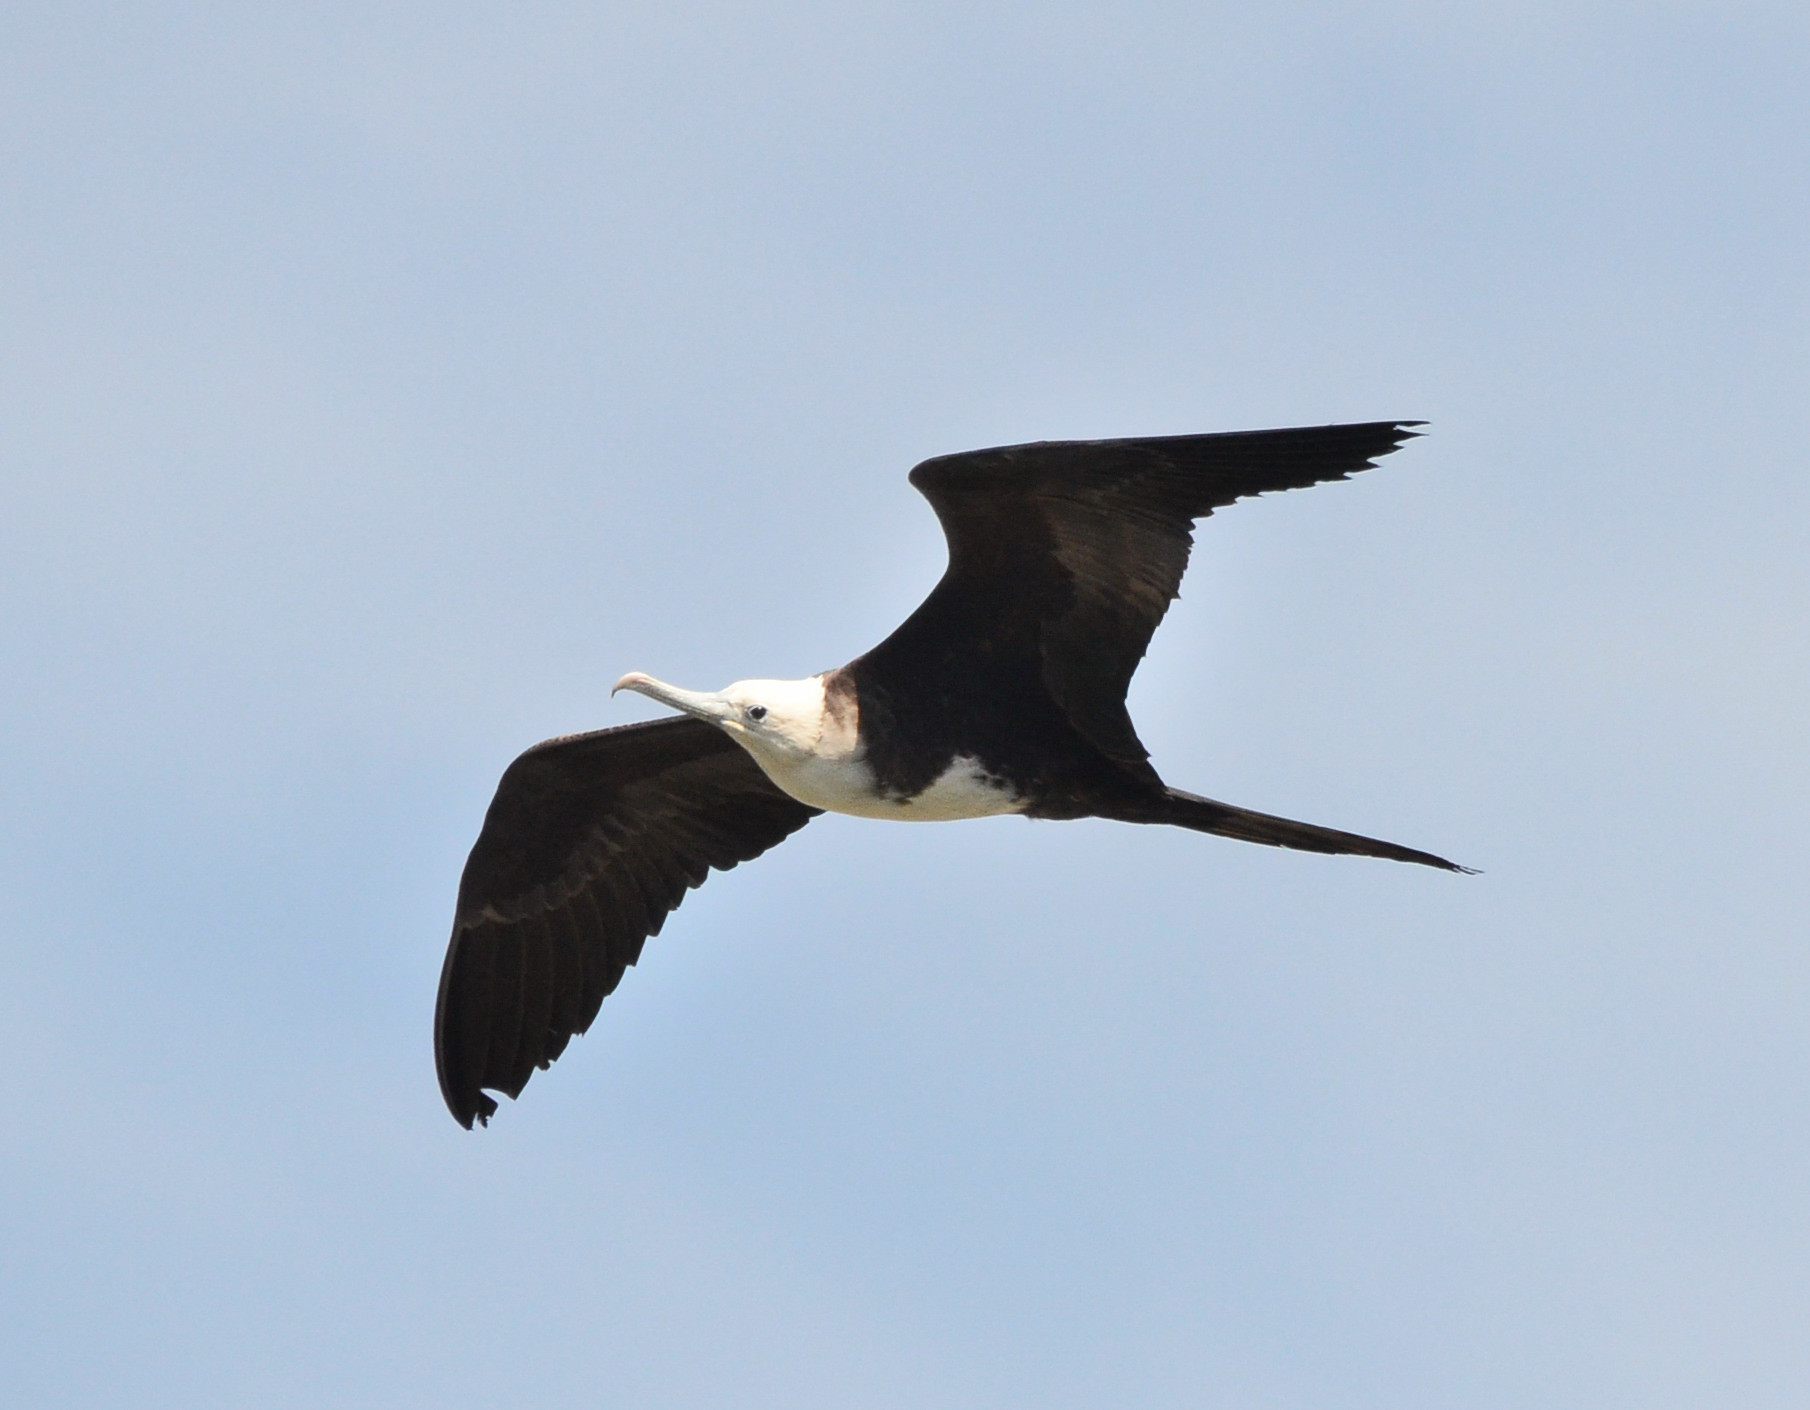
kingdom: Animalia
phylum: Chordata
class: Aves
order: Suliformes
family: Fregatidae
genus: Fregata
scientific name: Fregata magnificens
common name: Magnificent frigatebird
